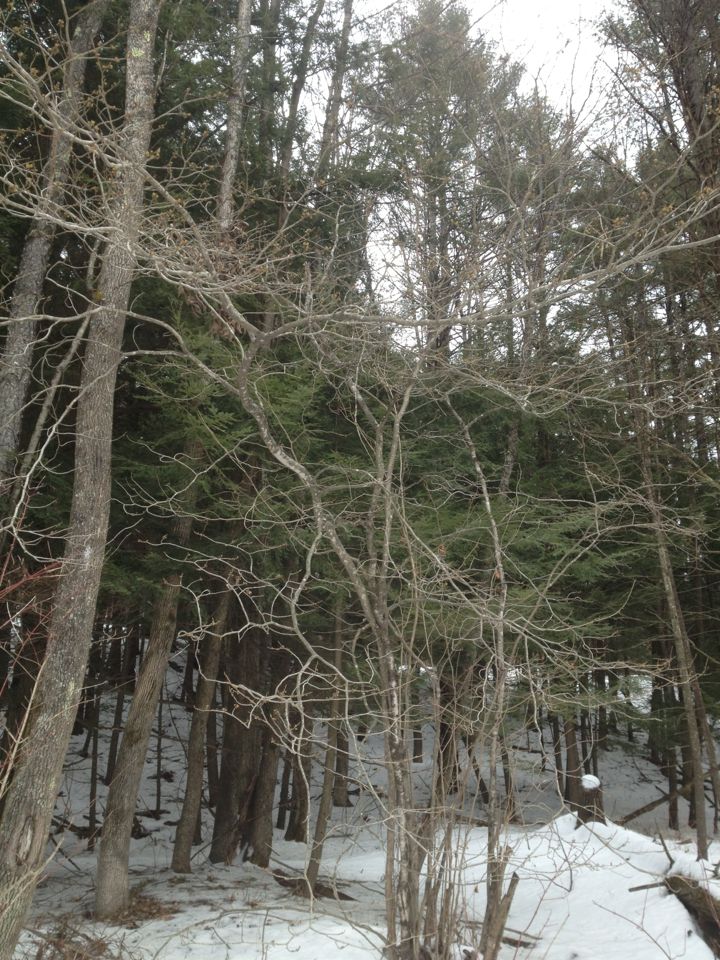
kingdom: Plantae
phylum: Tracheophyta
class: Magnoliopsida
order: Saxifragales
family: Hamamelidaceae
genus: Hamamelis
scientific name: Hamamelis virginiana
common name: Witch-hazel
